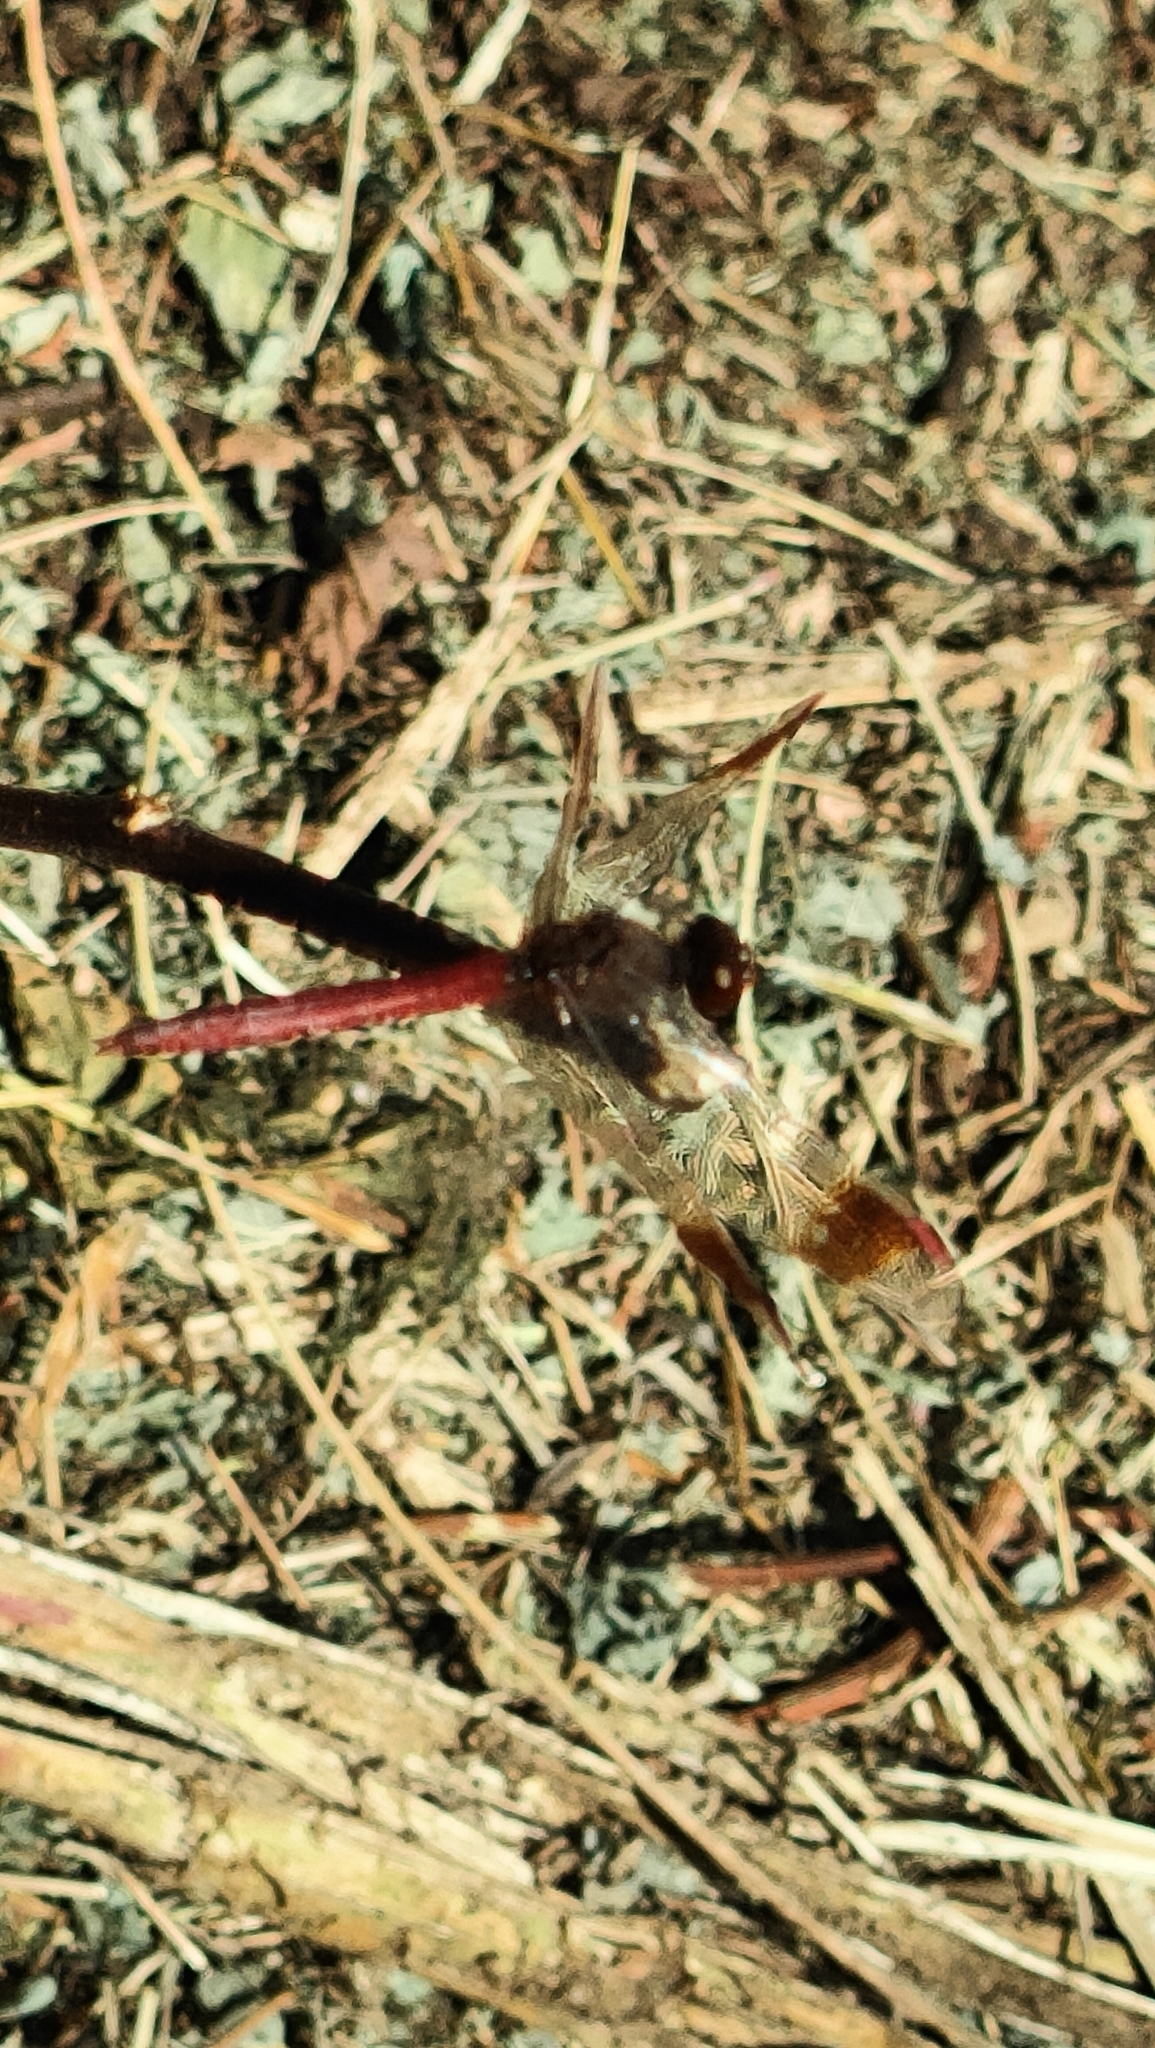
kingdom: Animalia
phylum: Arthropoda
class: Insecta
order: Odonata
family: Libellulidae
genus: Sympetrum
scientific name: Sympetrum pedemontanum
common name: Banded darter
